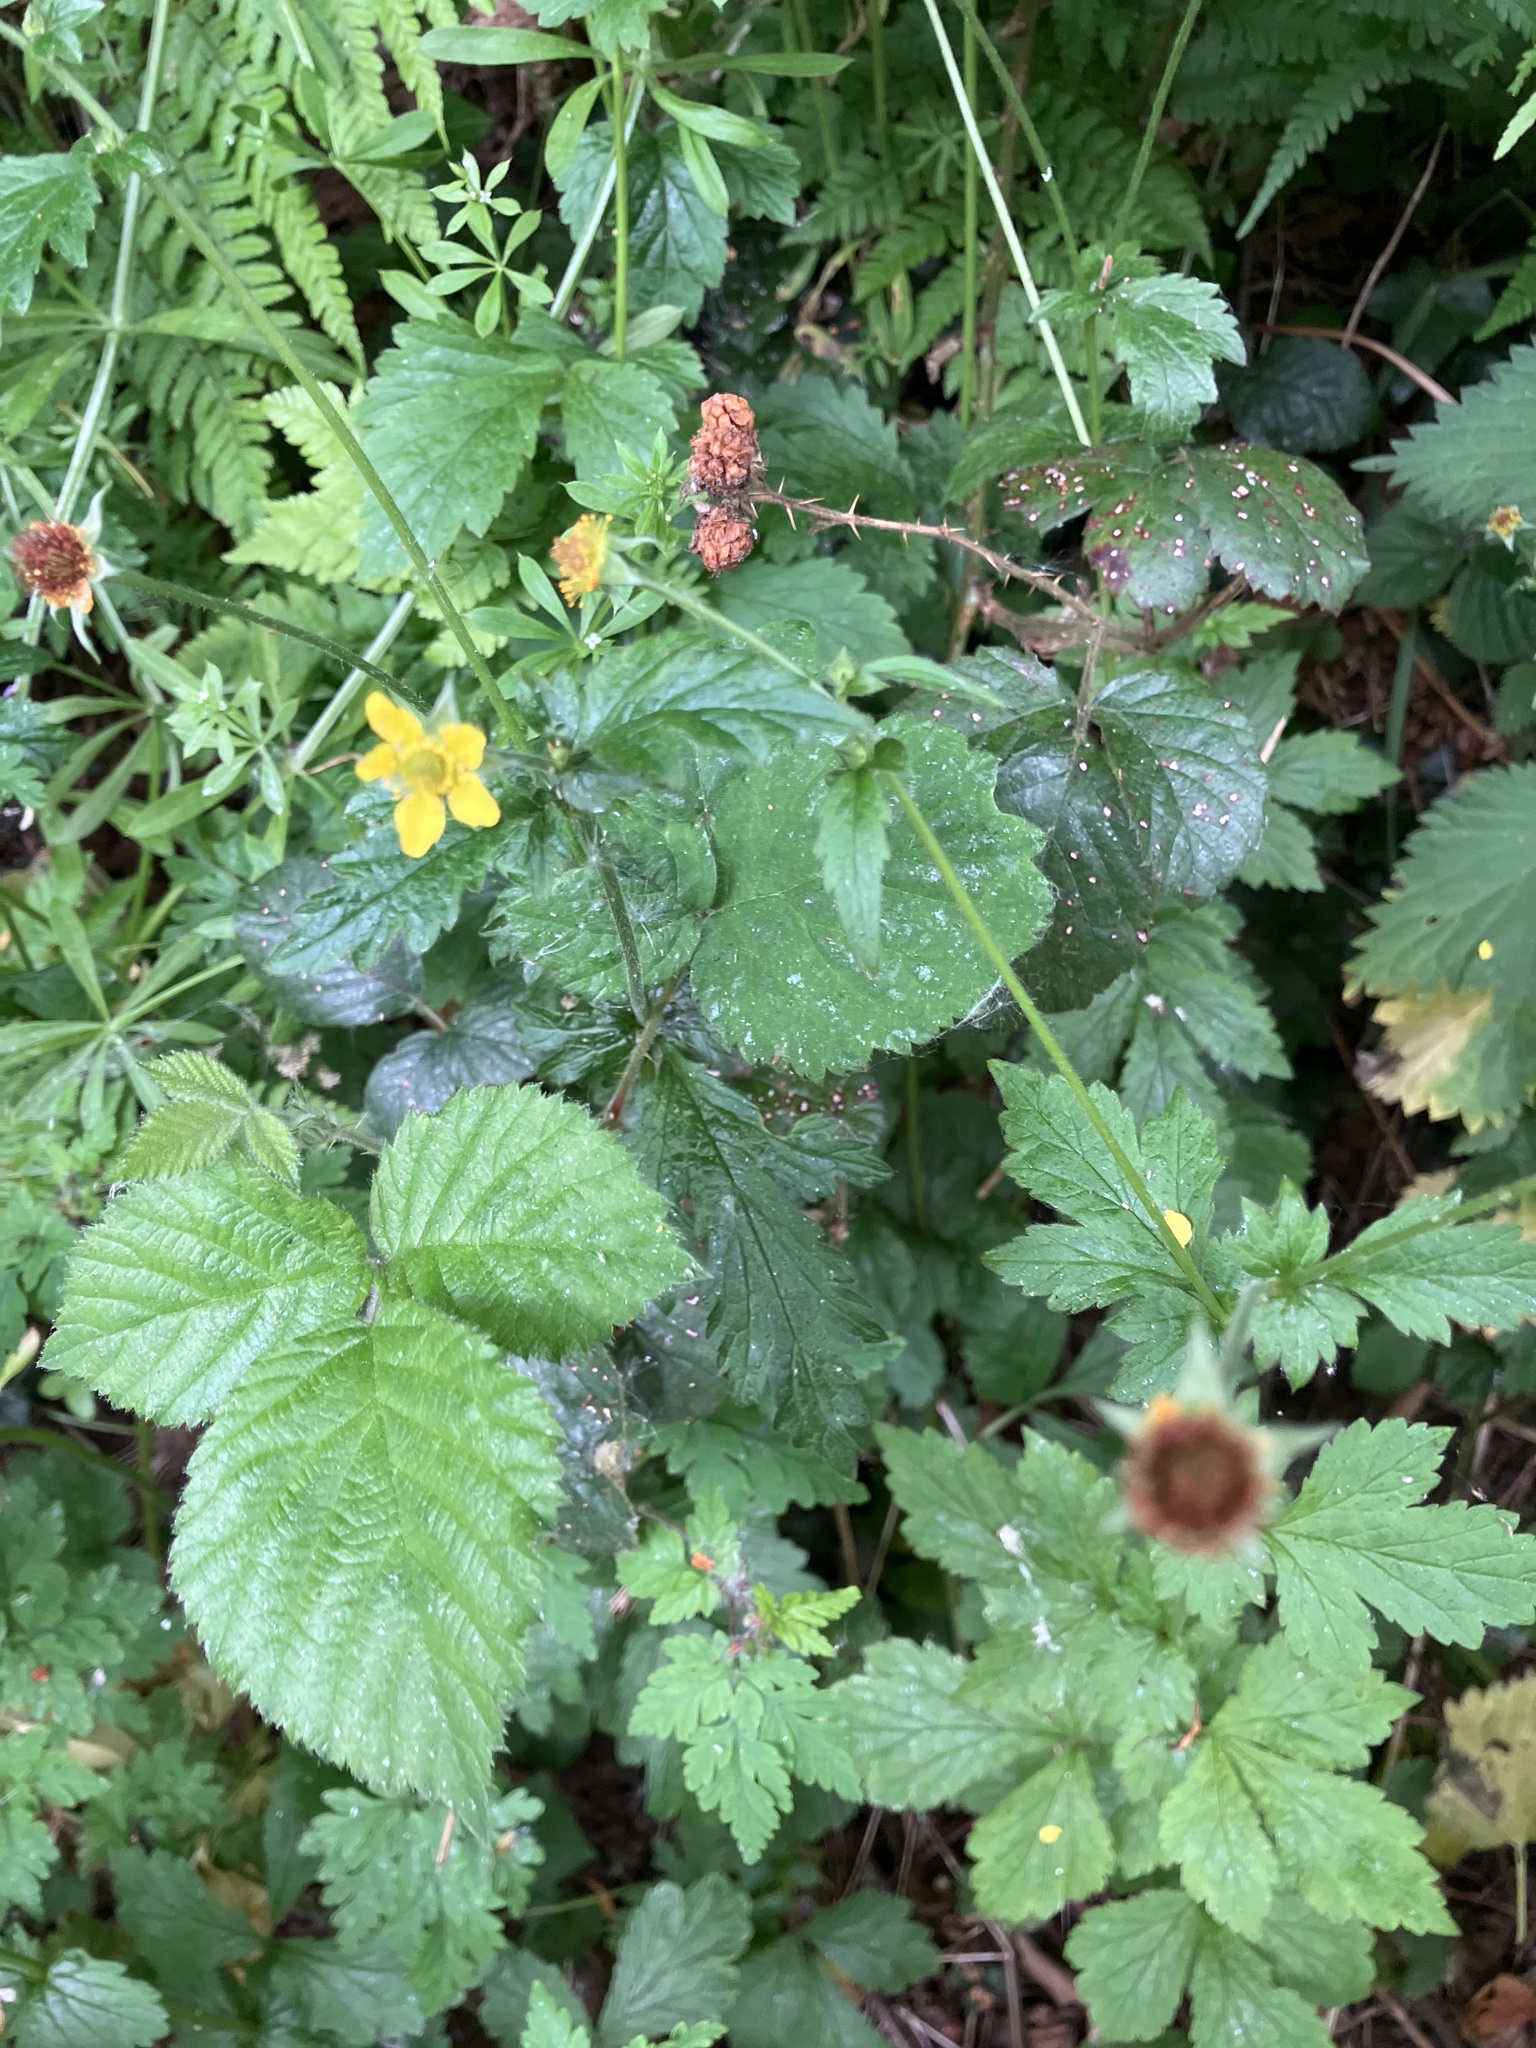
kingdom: Plantae
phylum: Tracheophyta
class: Magnoliopsida
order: Rosales
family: Rosaceae
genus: Geum
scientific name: Geum urbanum
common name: Wood avens
